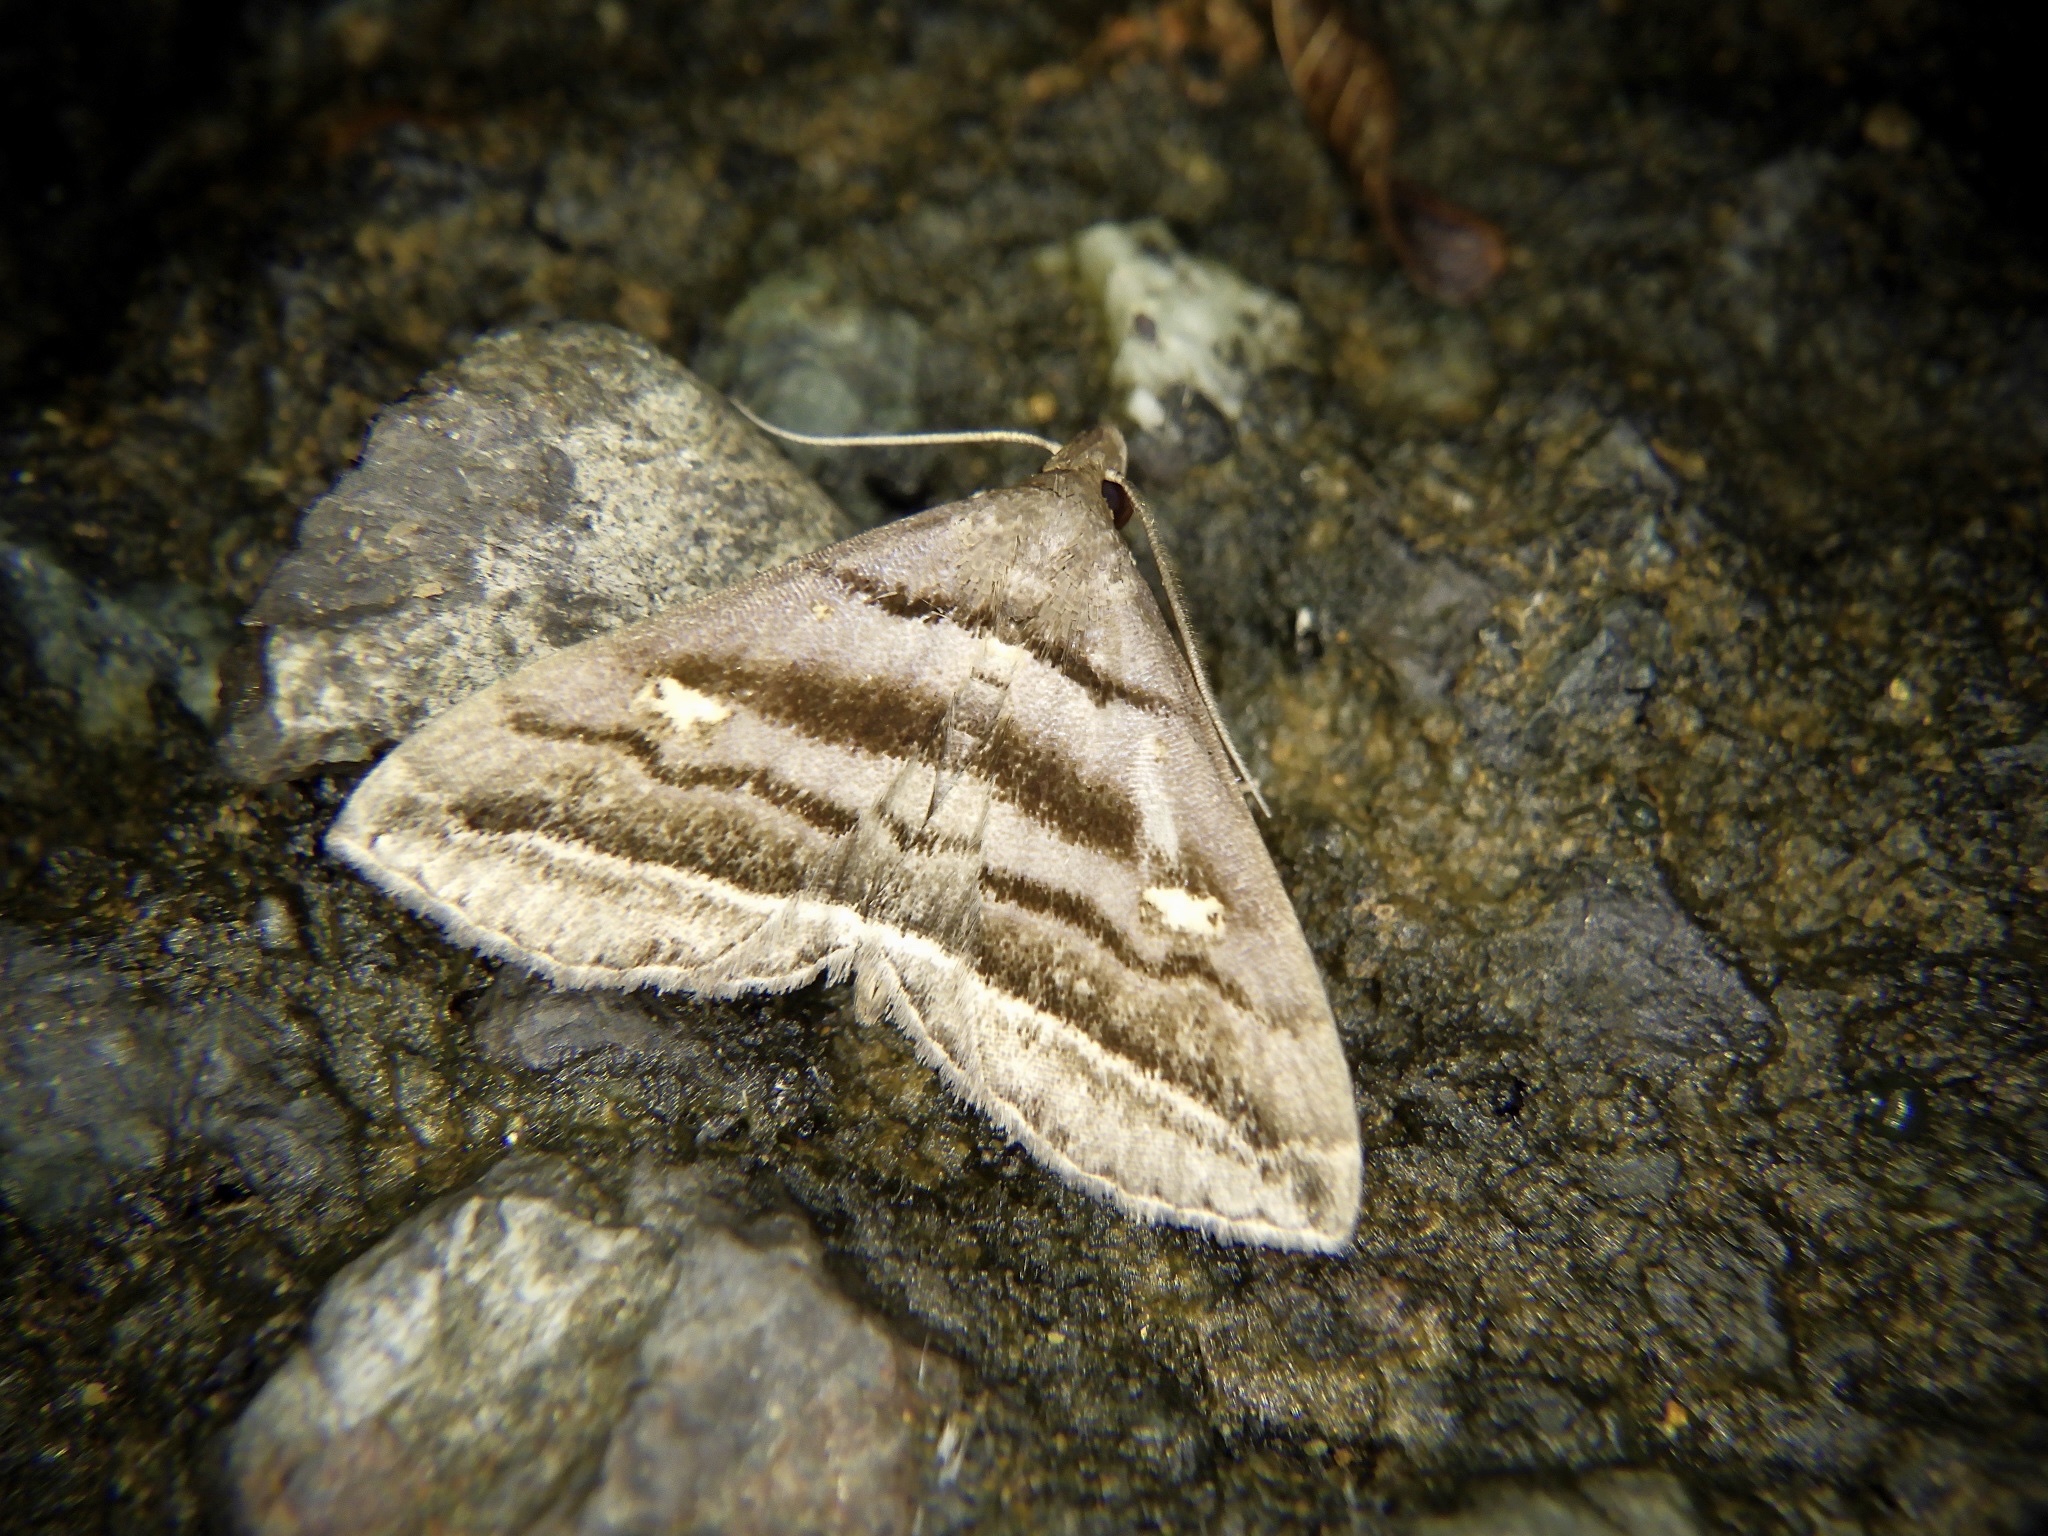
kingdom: Animalia
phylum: Arthropoda
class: Insecta
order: Lepidoptera
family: Erebidae
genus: Paracolax
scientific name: Paracolax pryeri
